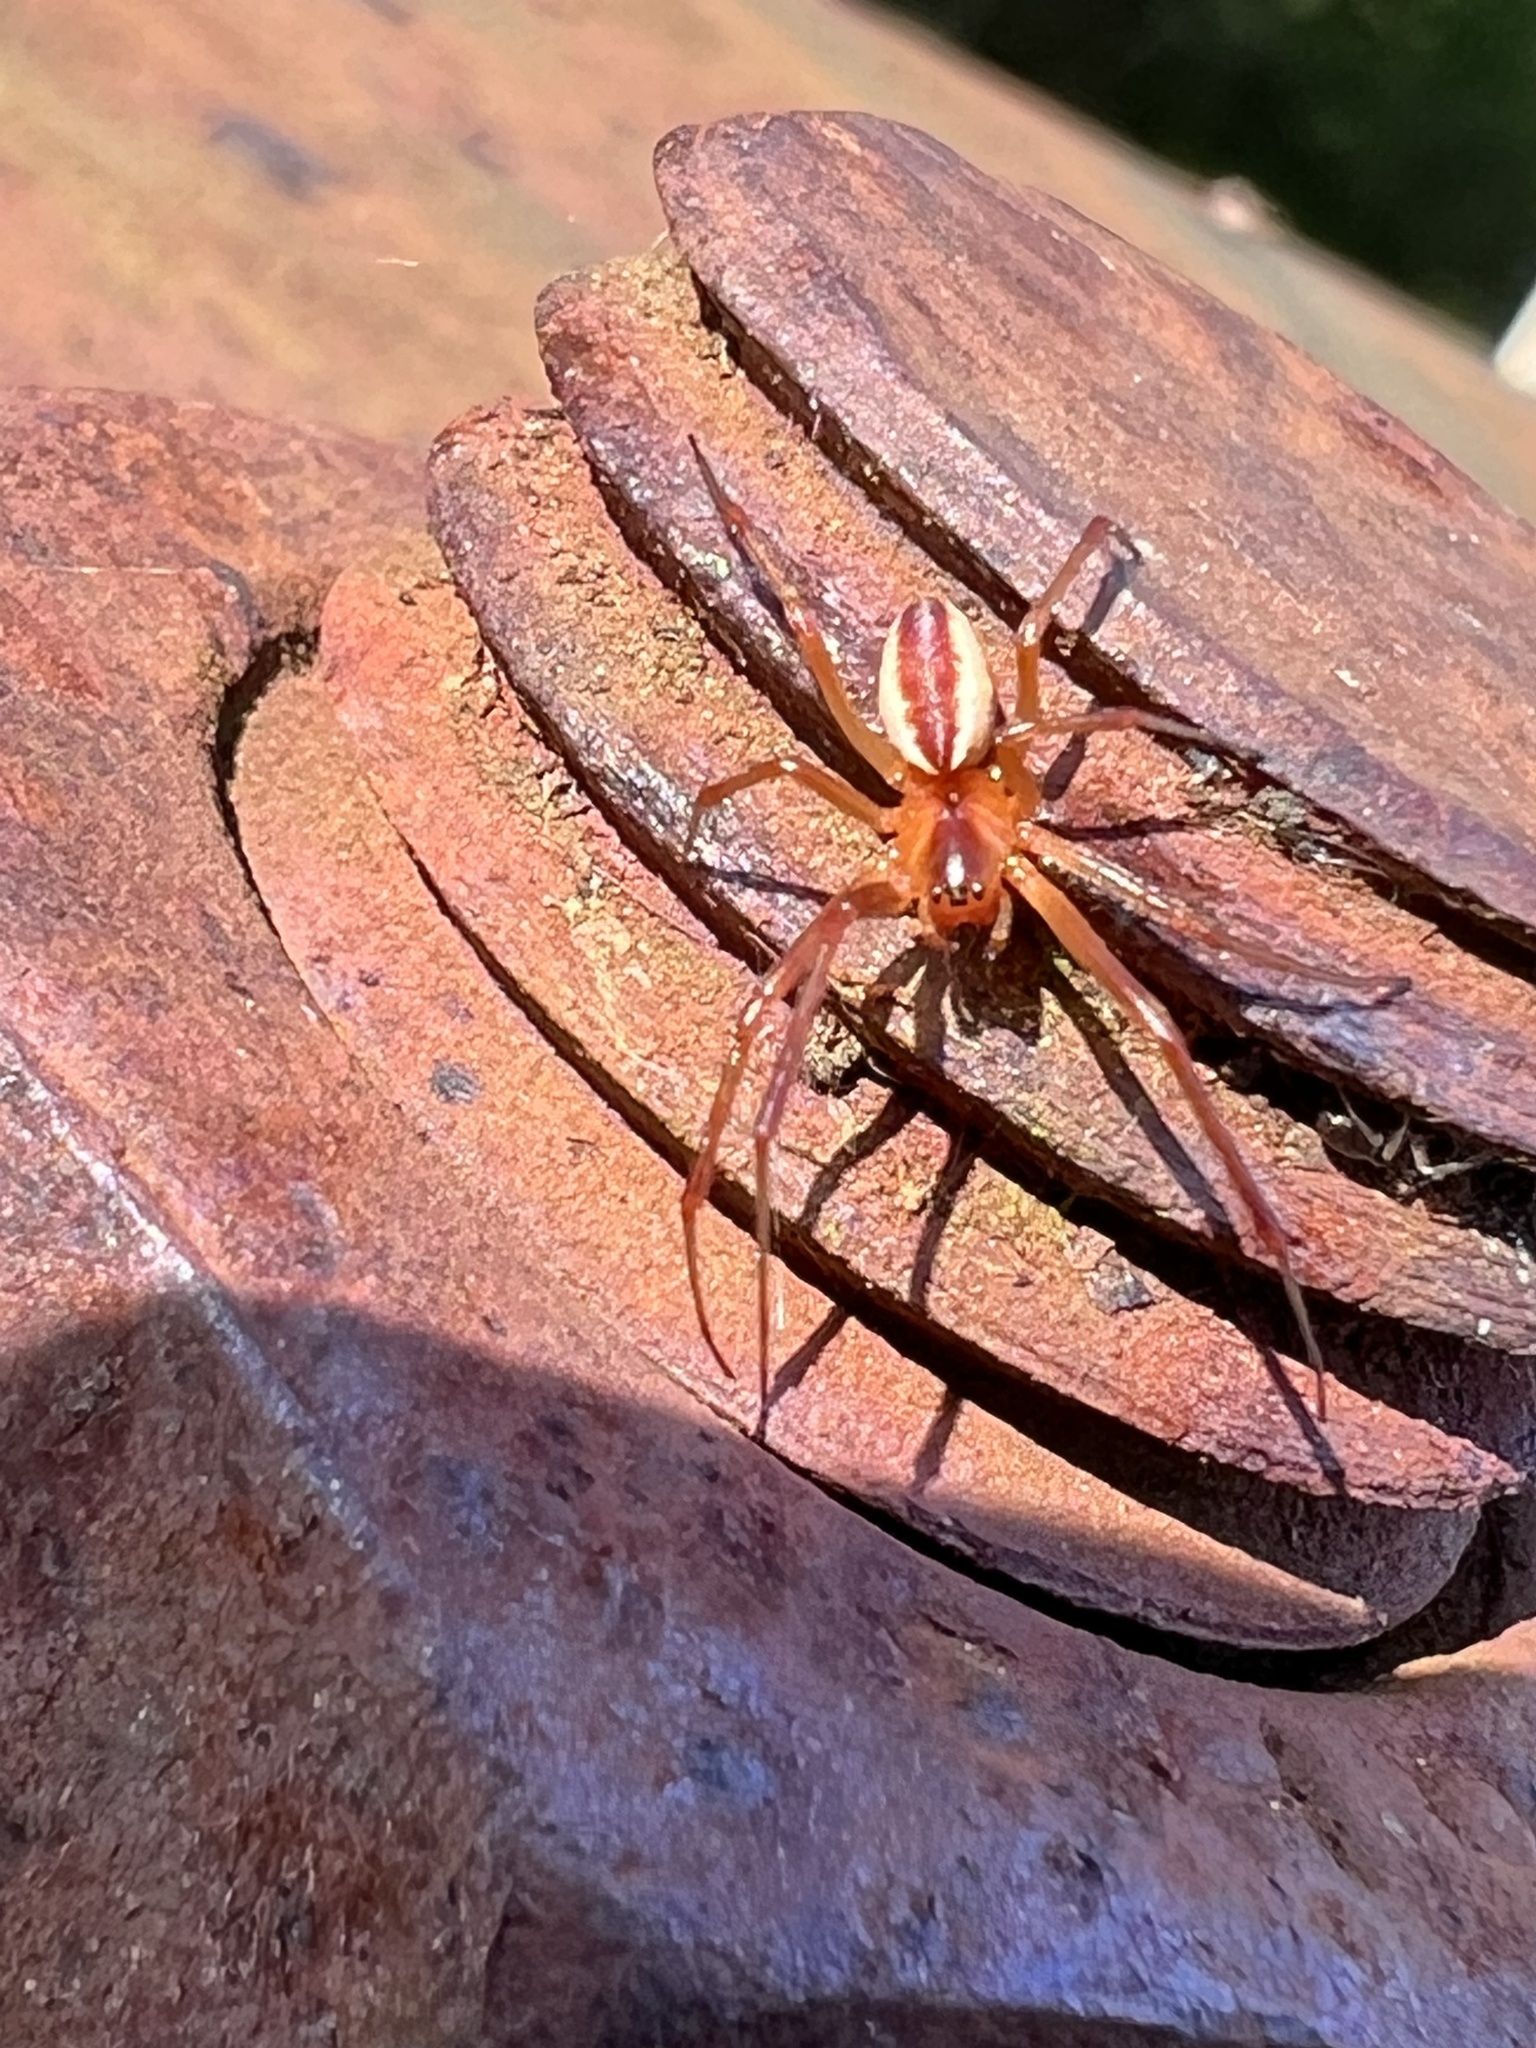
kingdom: Animalia
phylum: Arthropoda
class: Arachnida
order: Araneae
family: Linyphiidae
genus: Pityohyphantes
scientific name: Pityohyphantes rubrofasciatus
